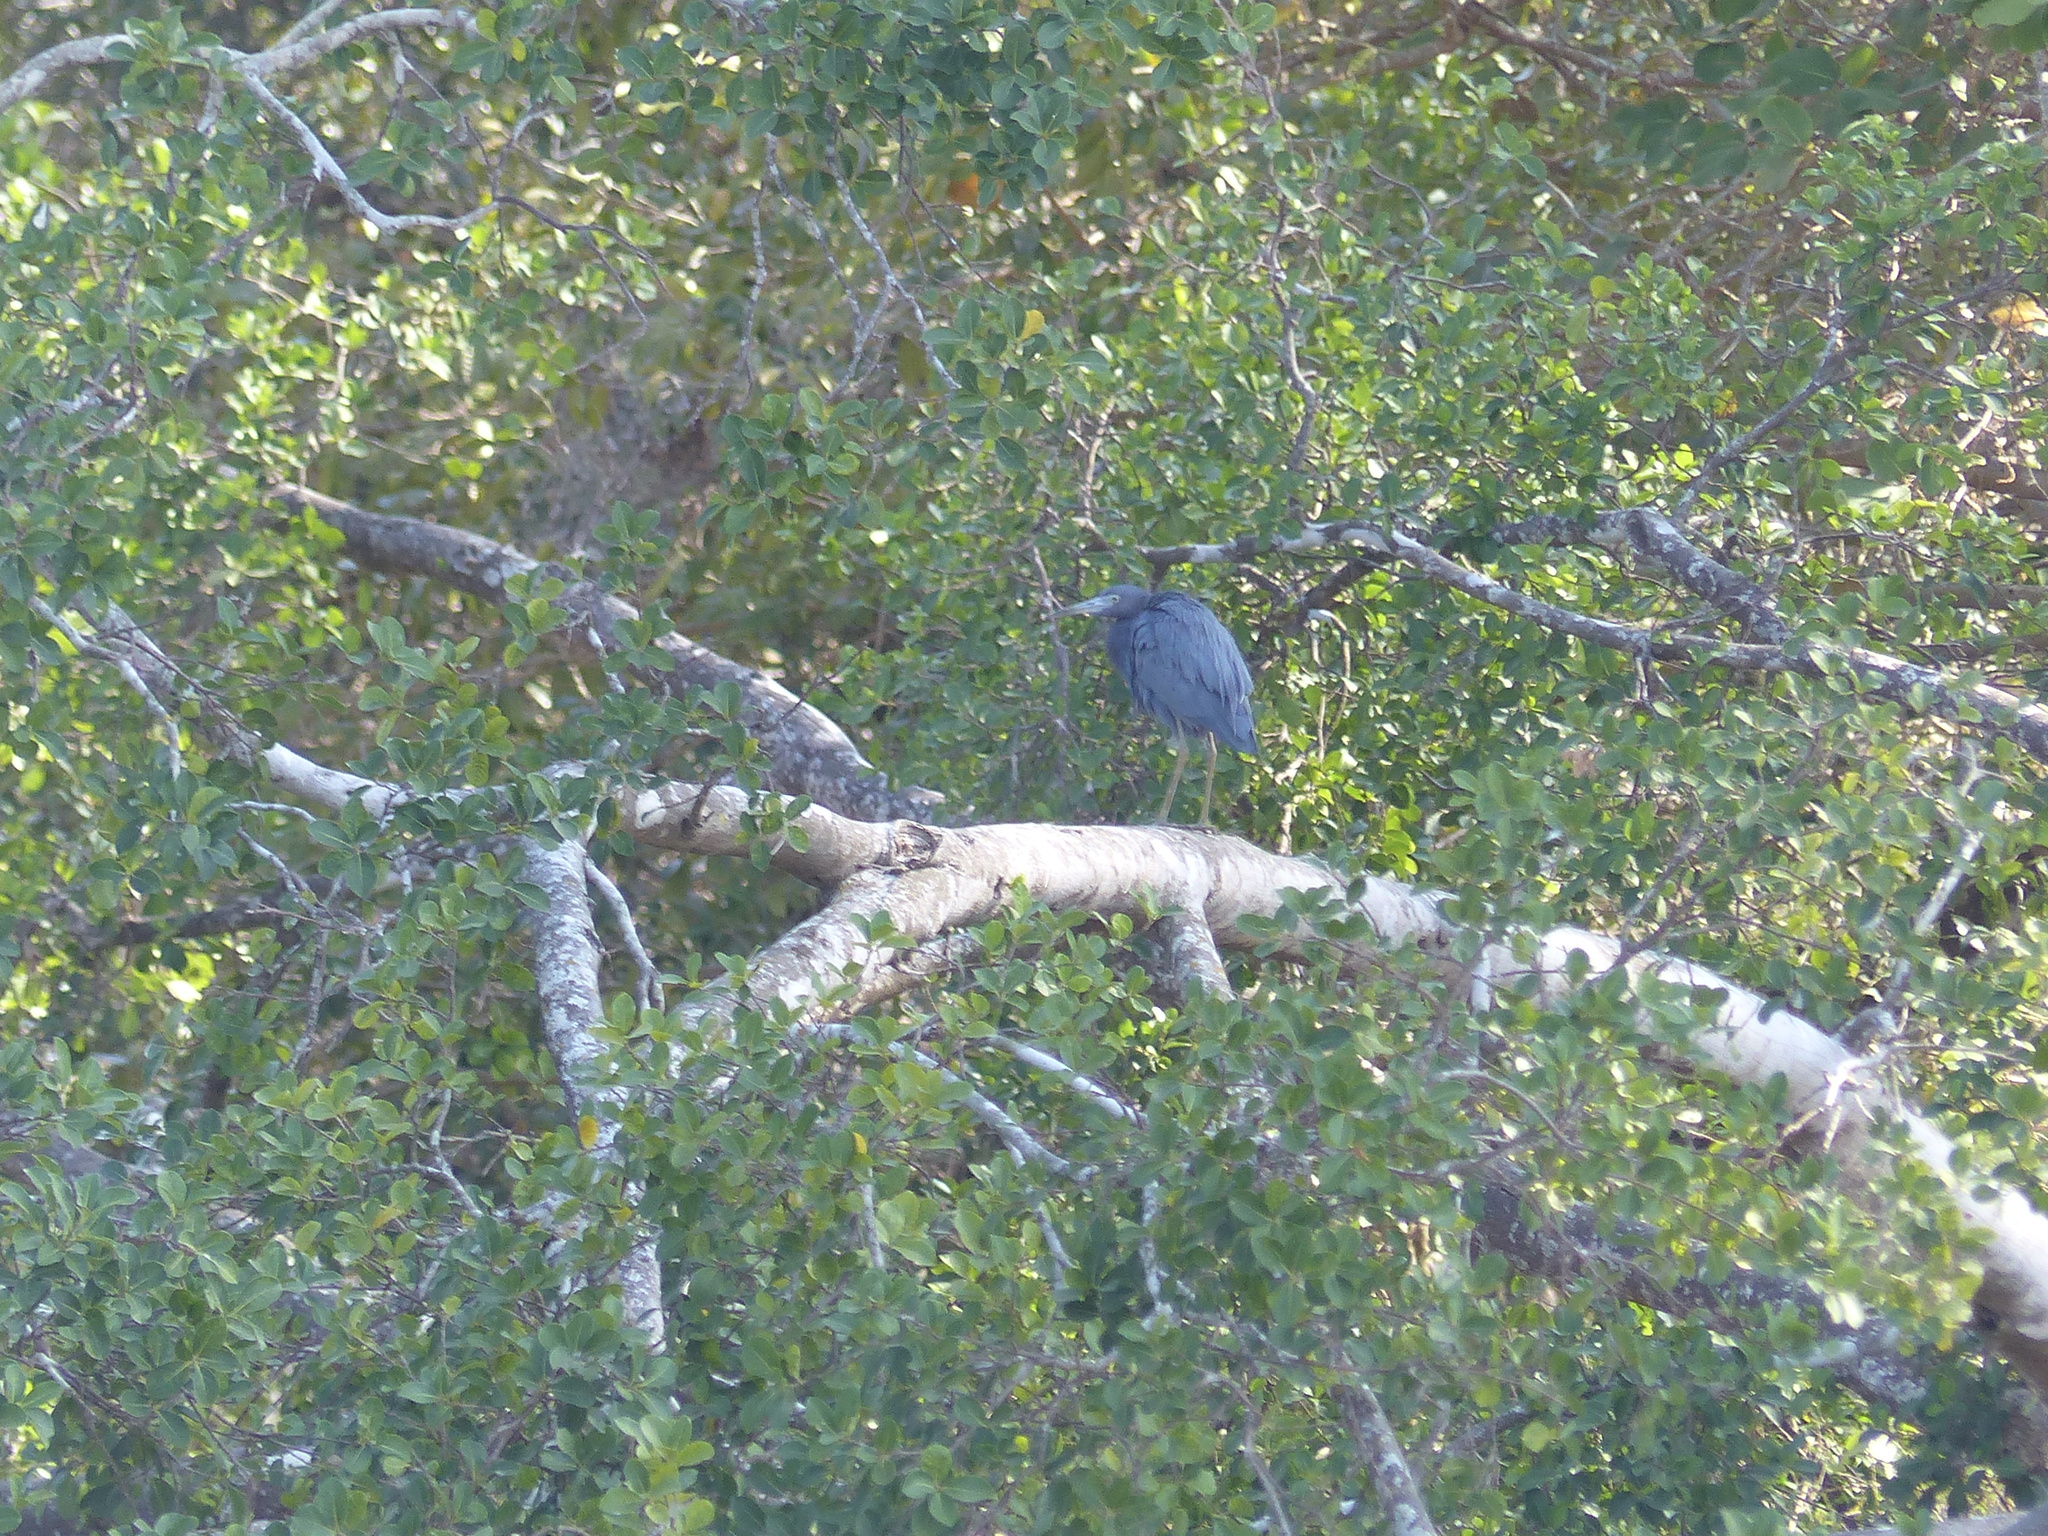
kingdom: Animalia
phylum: Chordata
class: Aves
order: Pelecaniformes
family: Ardeidae
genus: Egretta
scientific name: Egretta caerulea
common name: Little blue heron
